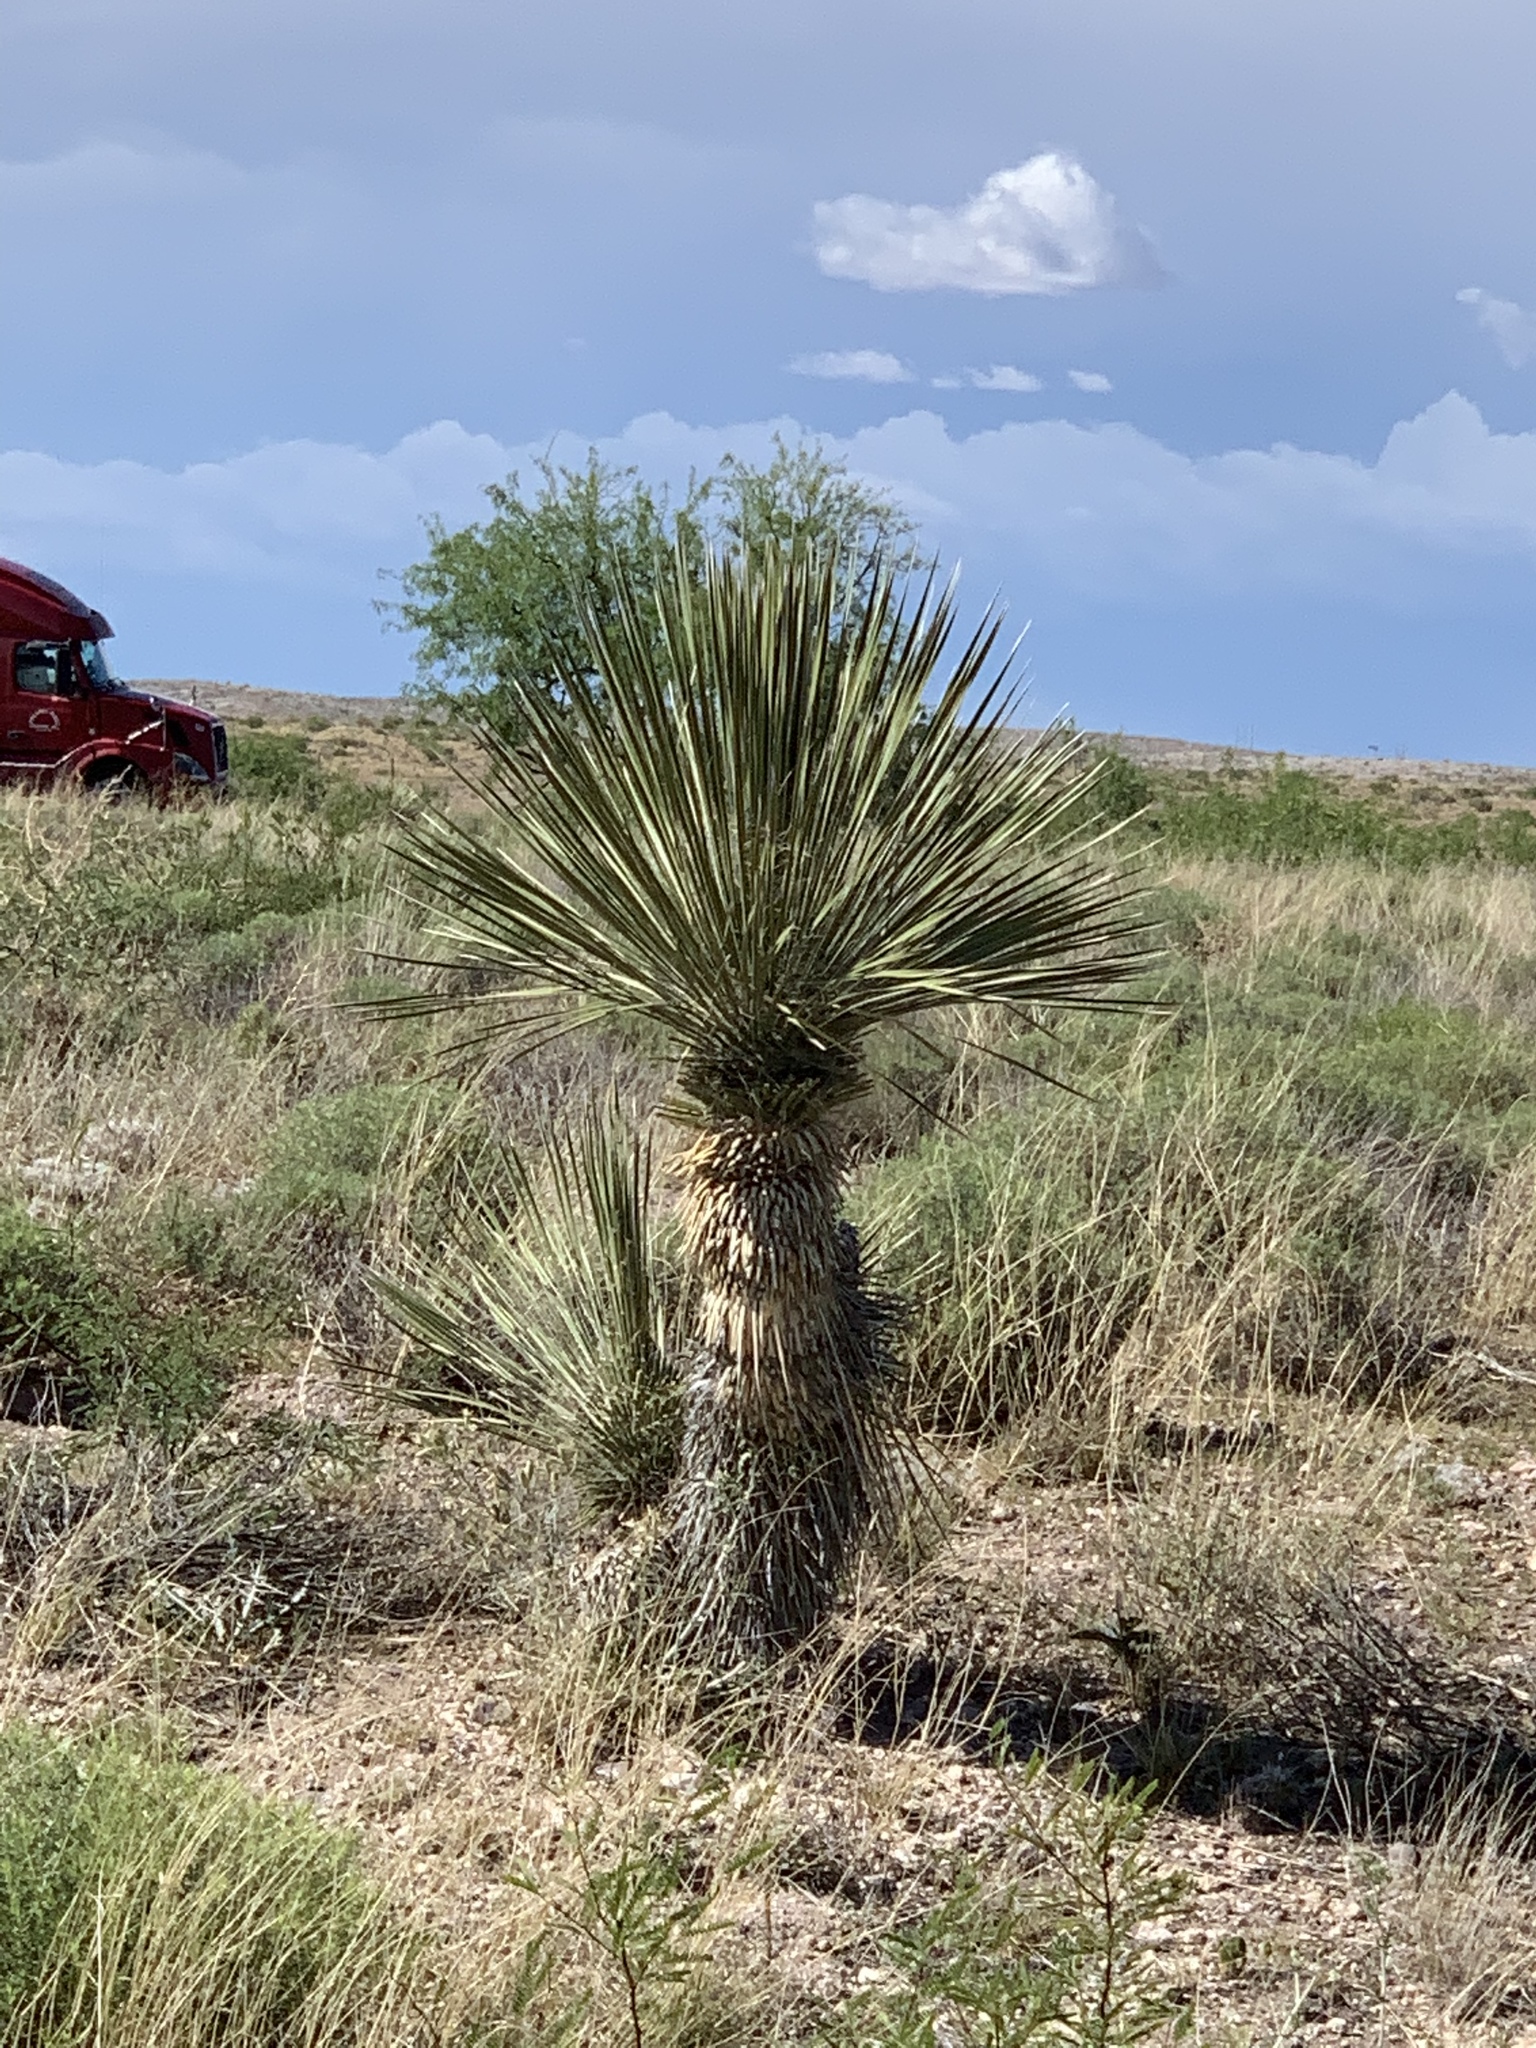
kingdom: Plantae
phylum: Tracheophyta
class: Liliopsida
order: Asparagales
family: Asparagaceae
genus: Yucca
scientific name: Yucca elata
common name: Palmella
